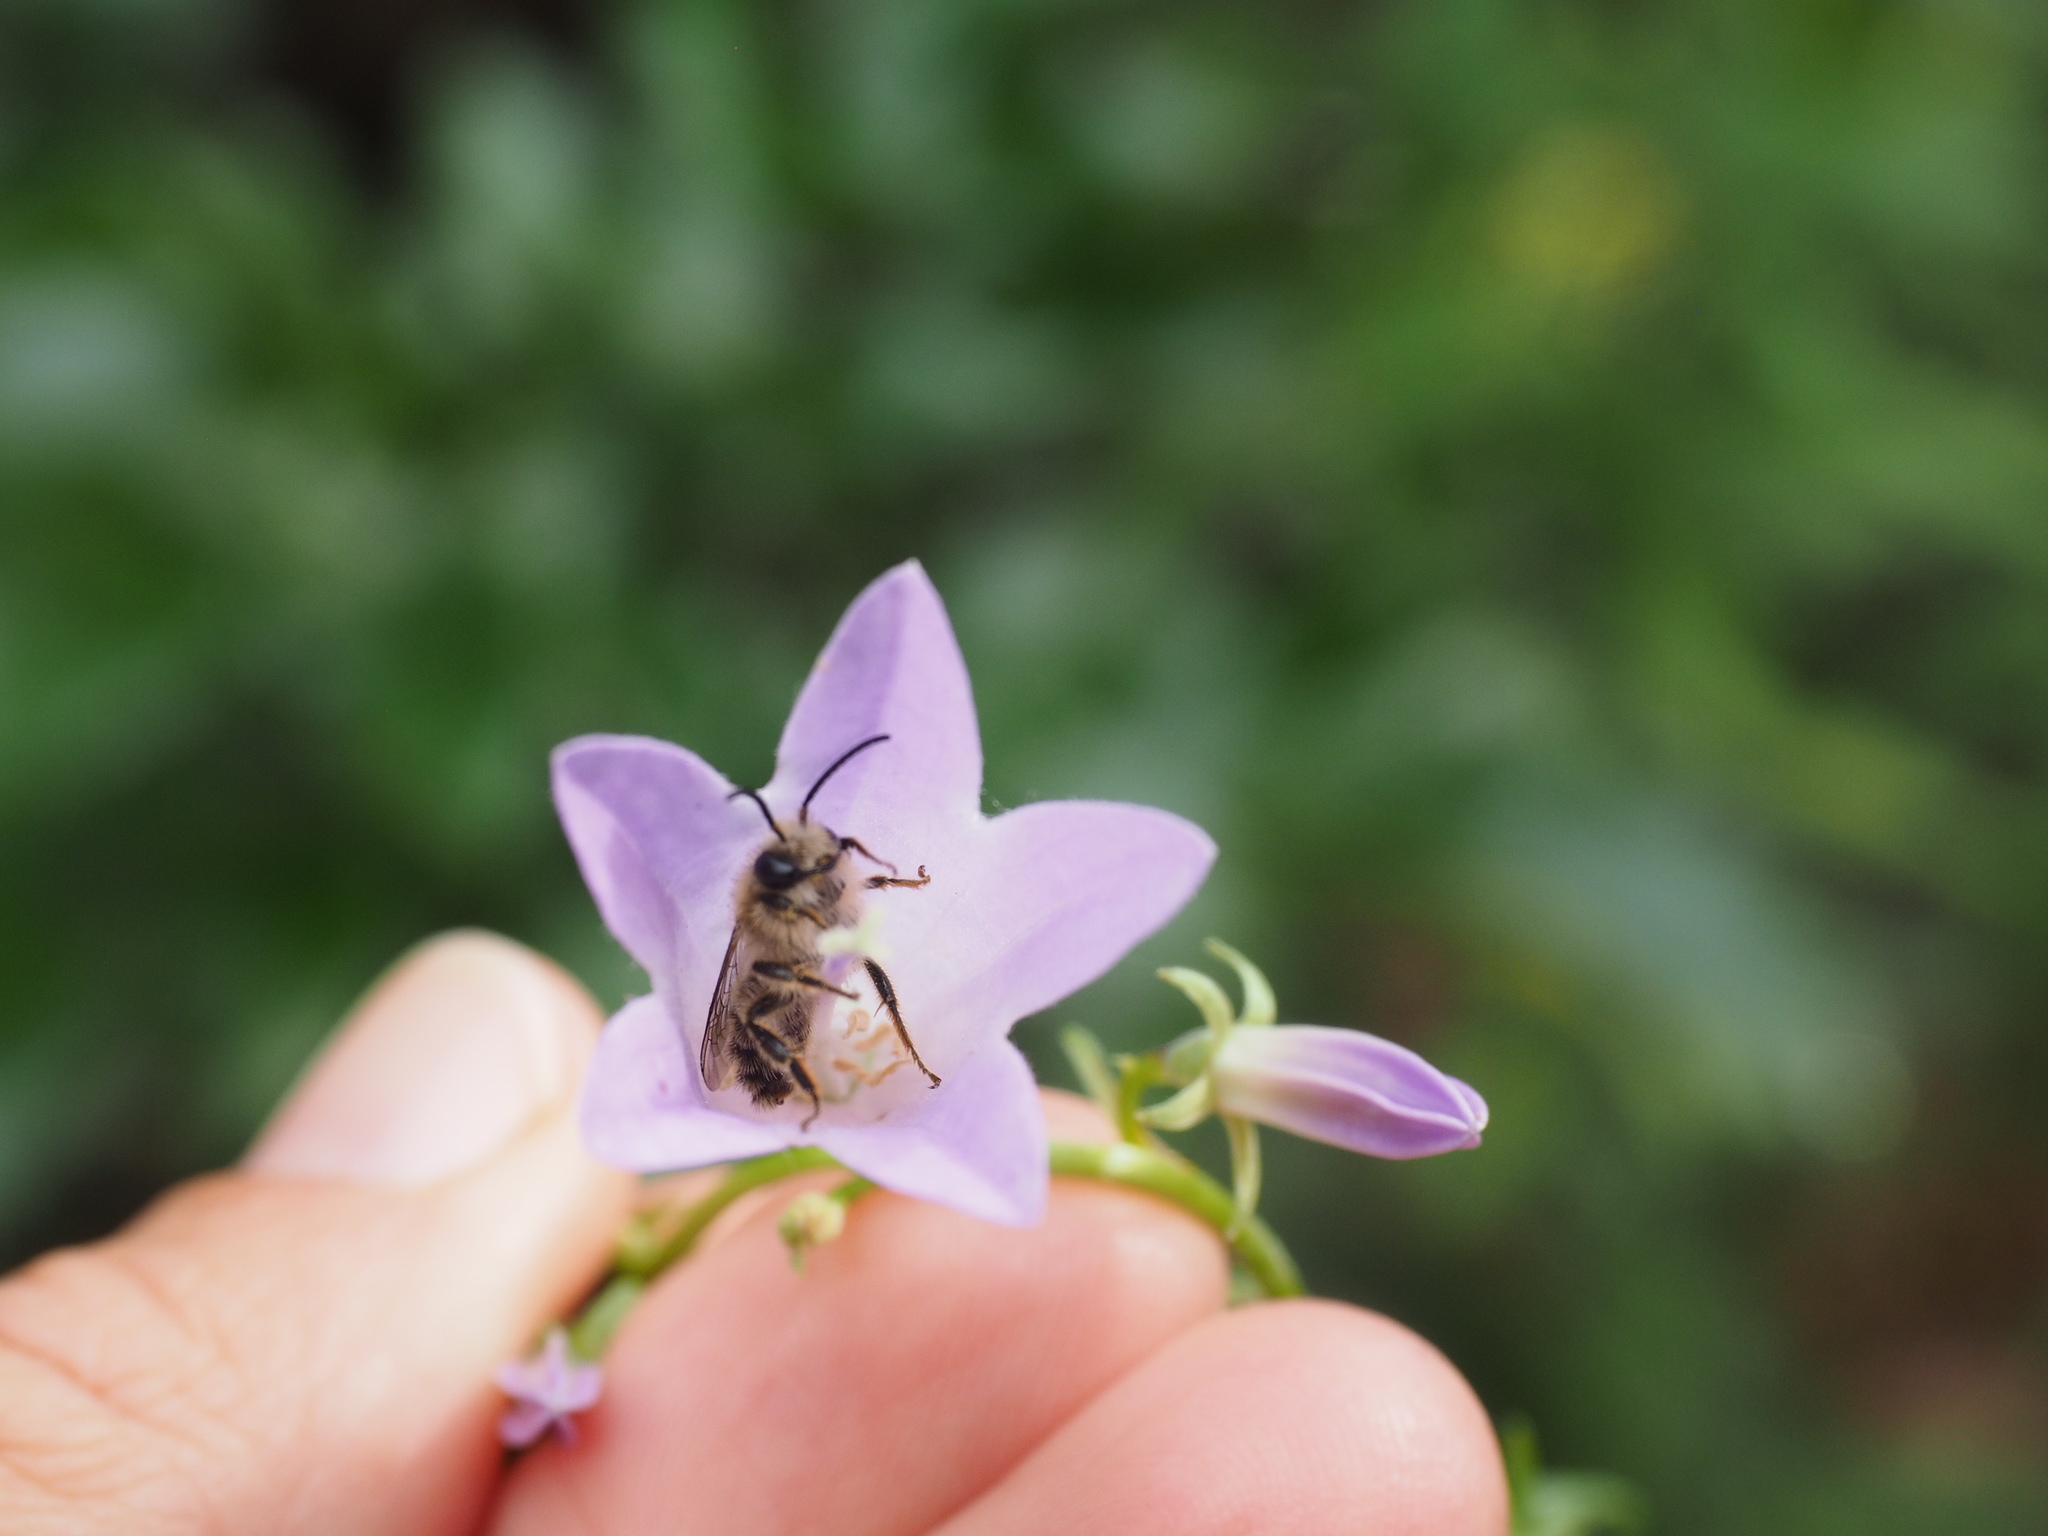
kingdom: Animalia
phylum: Arthropoda
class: Insecta
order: Hymenoptera
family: Melittidae
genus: Melitta
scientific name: Melitta haemorrhoidalis
